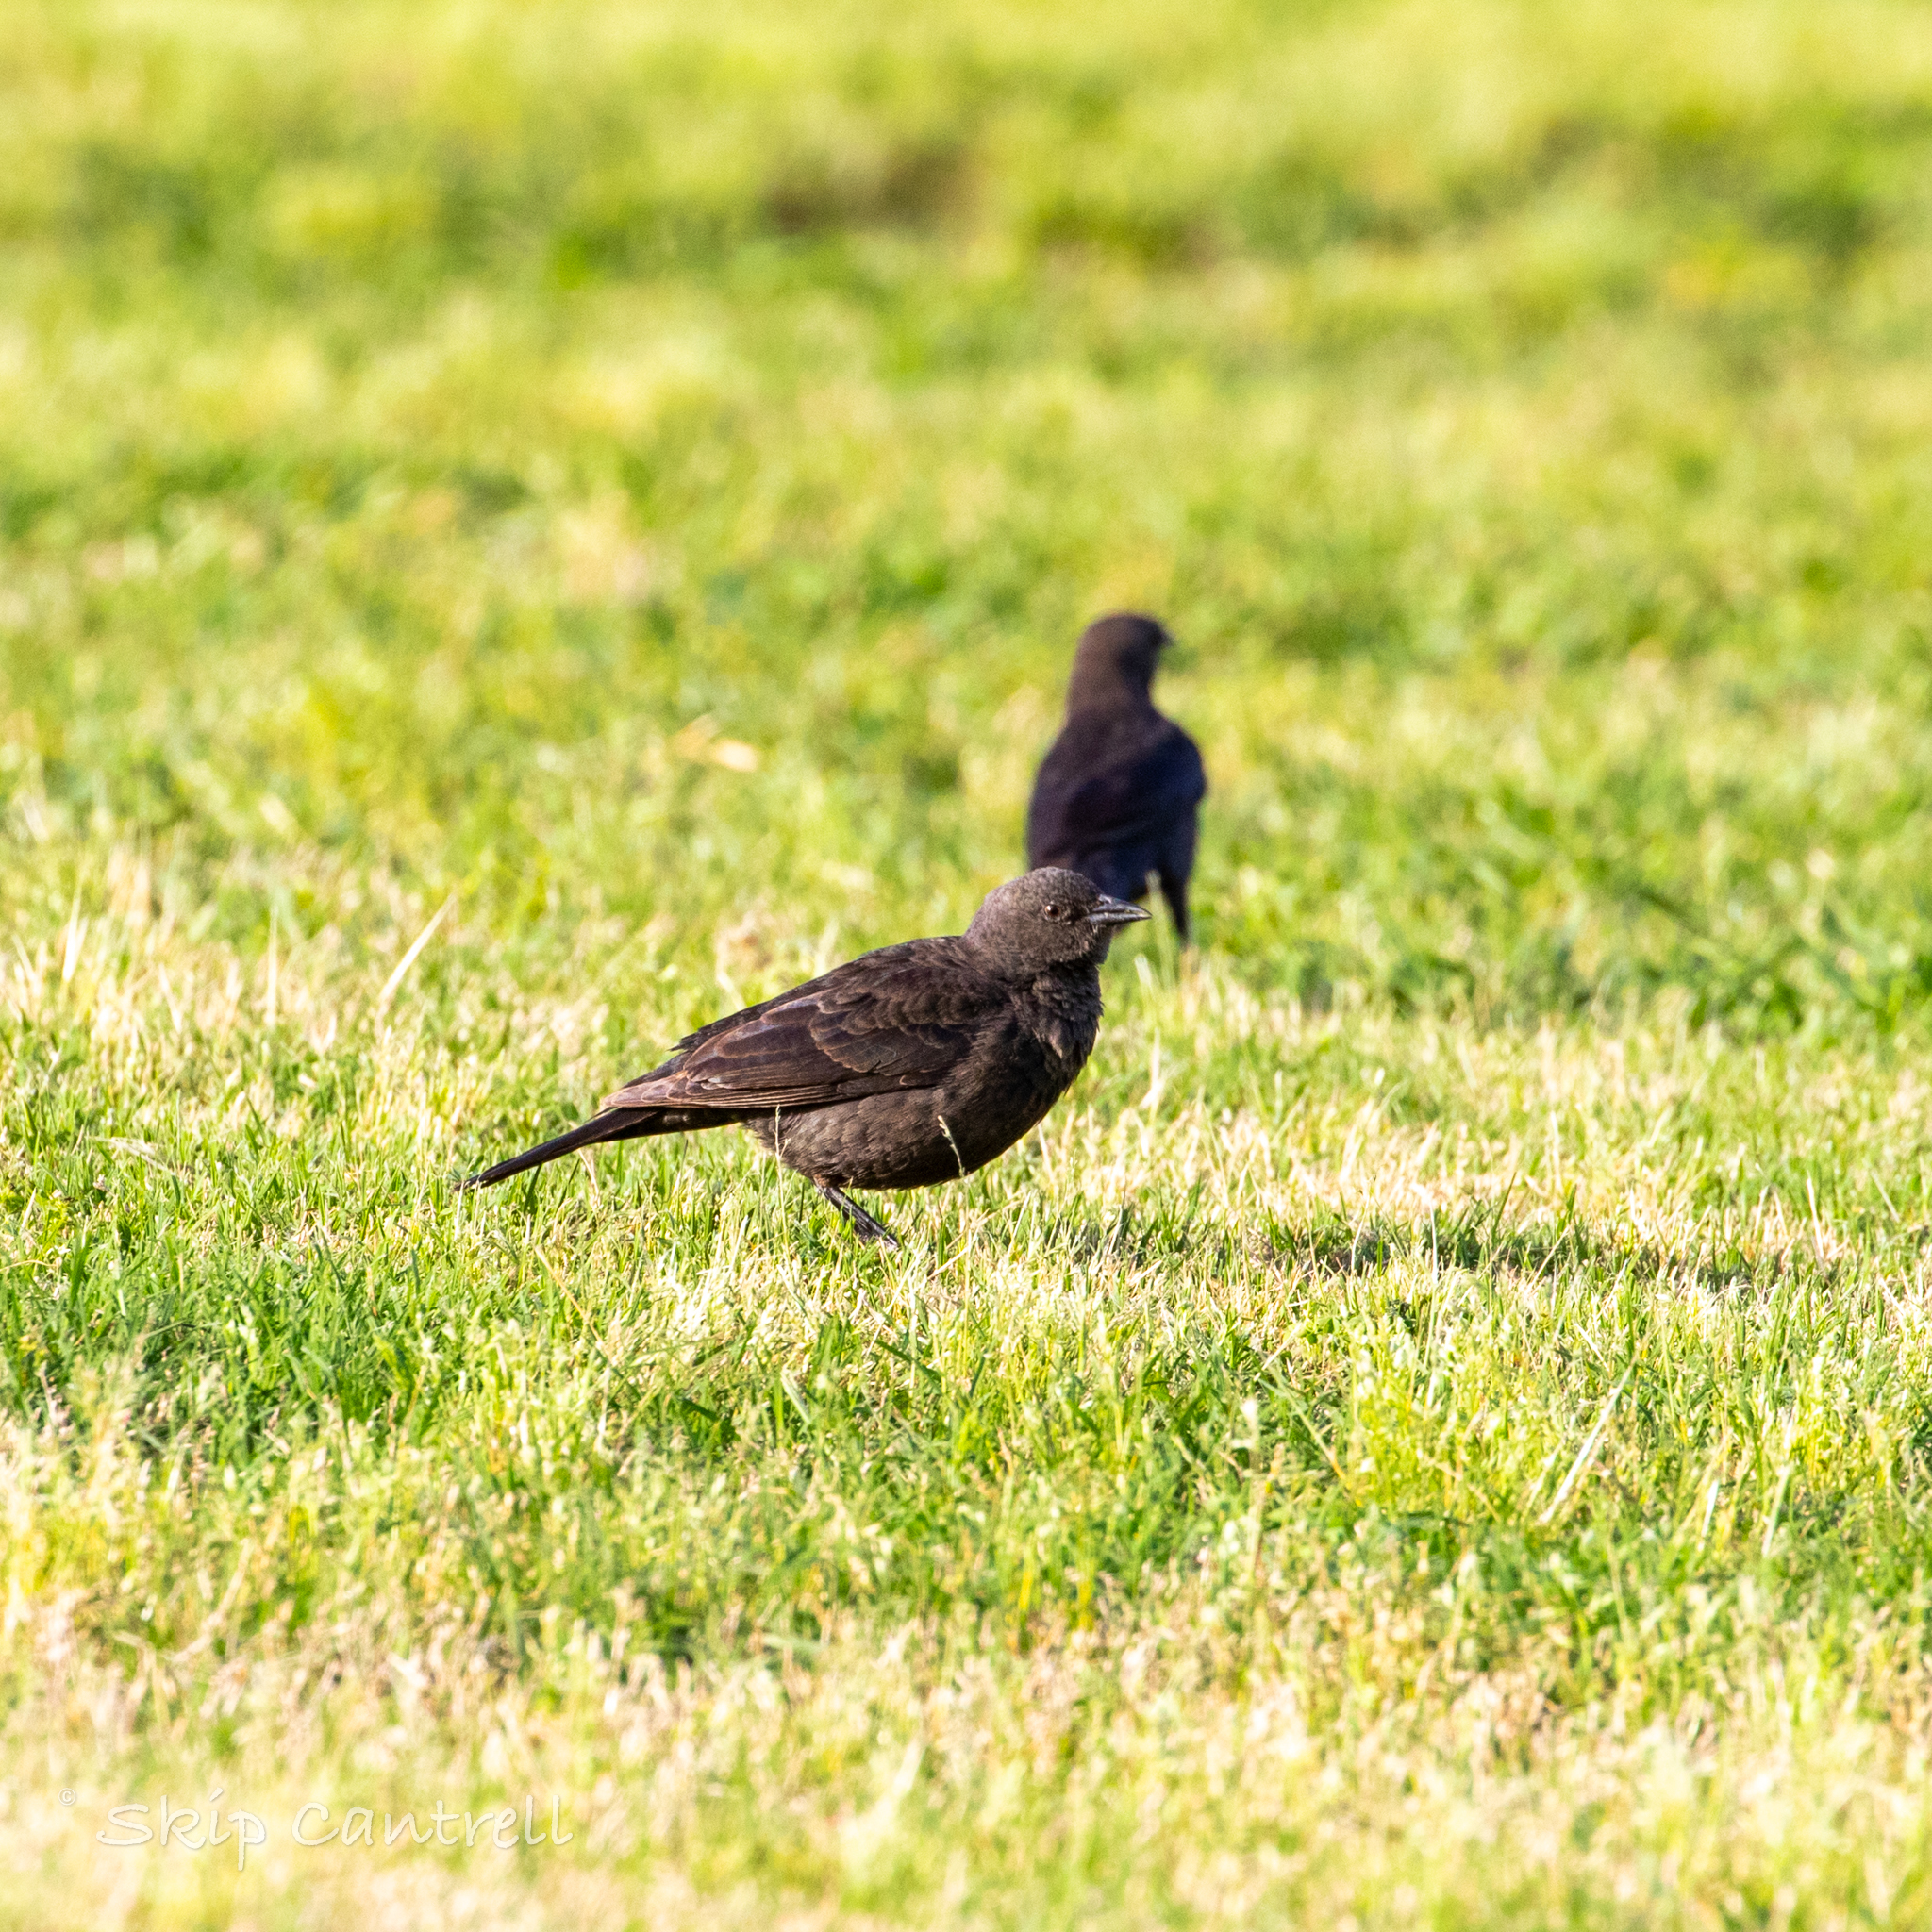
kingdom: Animalia
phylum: Chordata
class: Aves
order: Passeriformes
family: Icteridae
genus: Euphagus
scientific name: Euphagus cyanocephalus
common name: Brewer's blackbird
